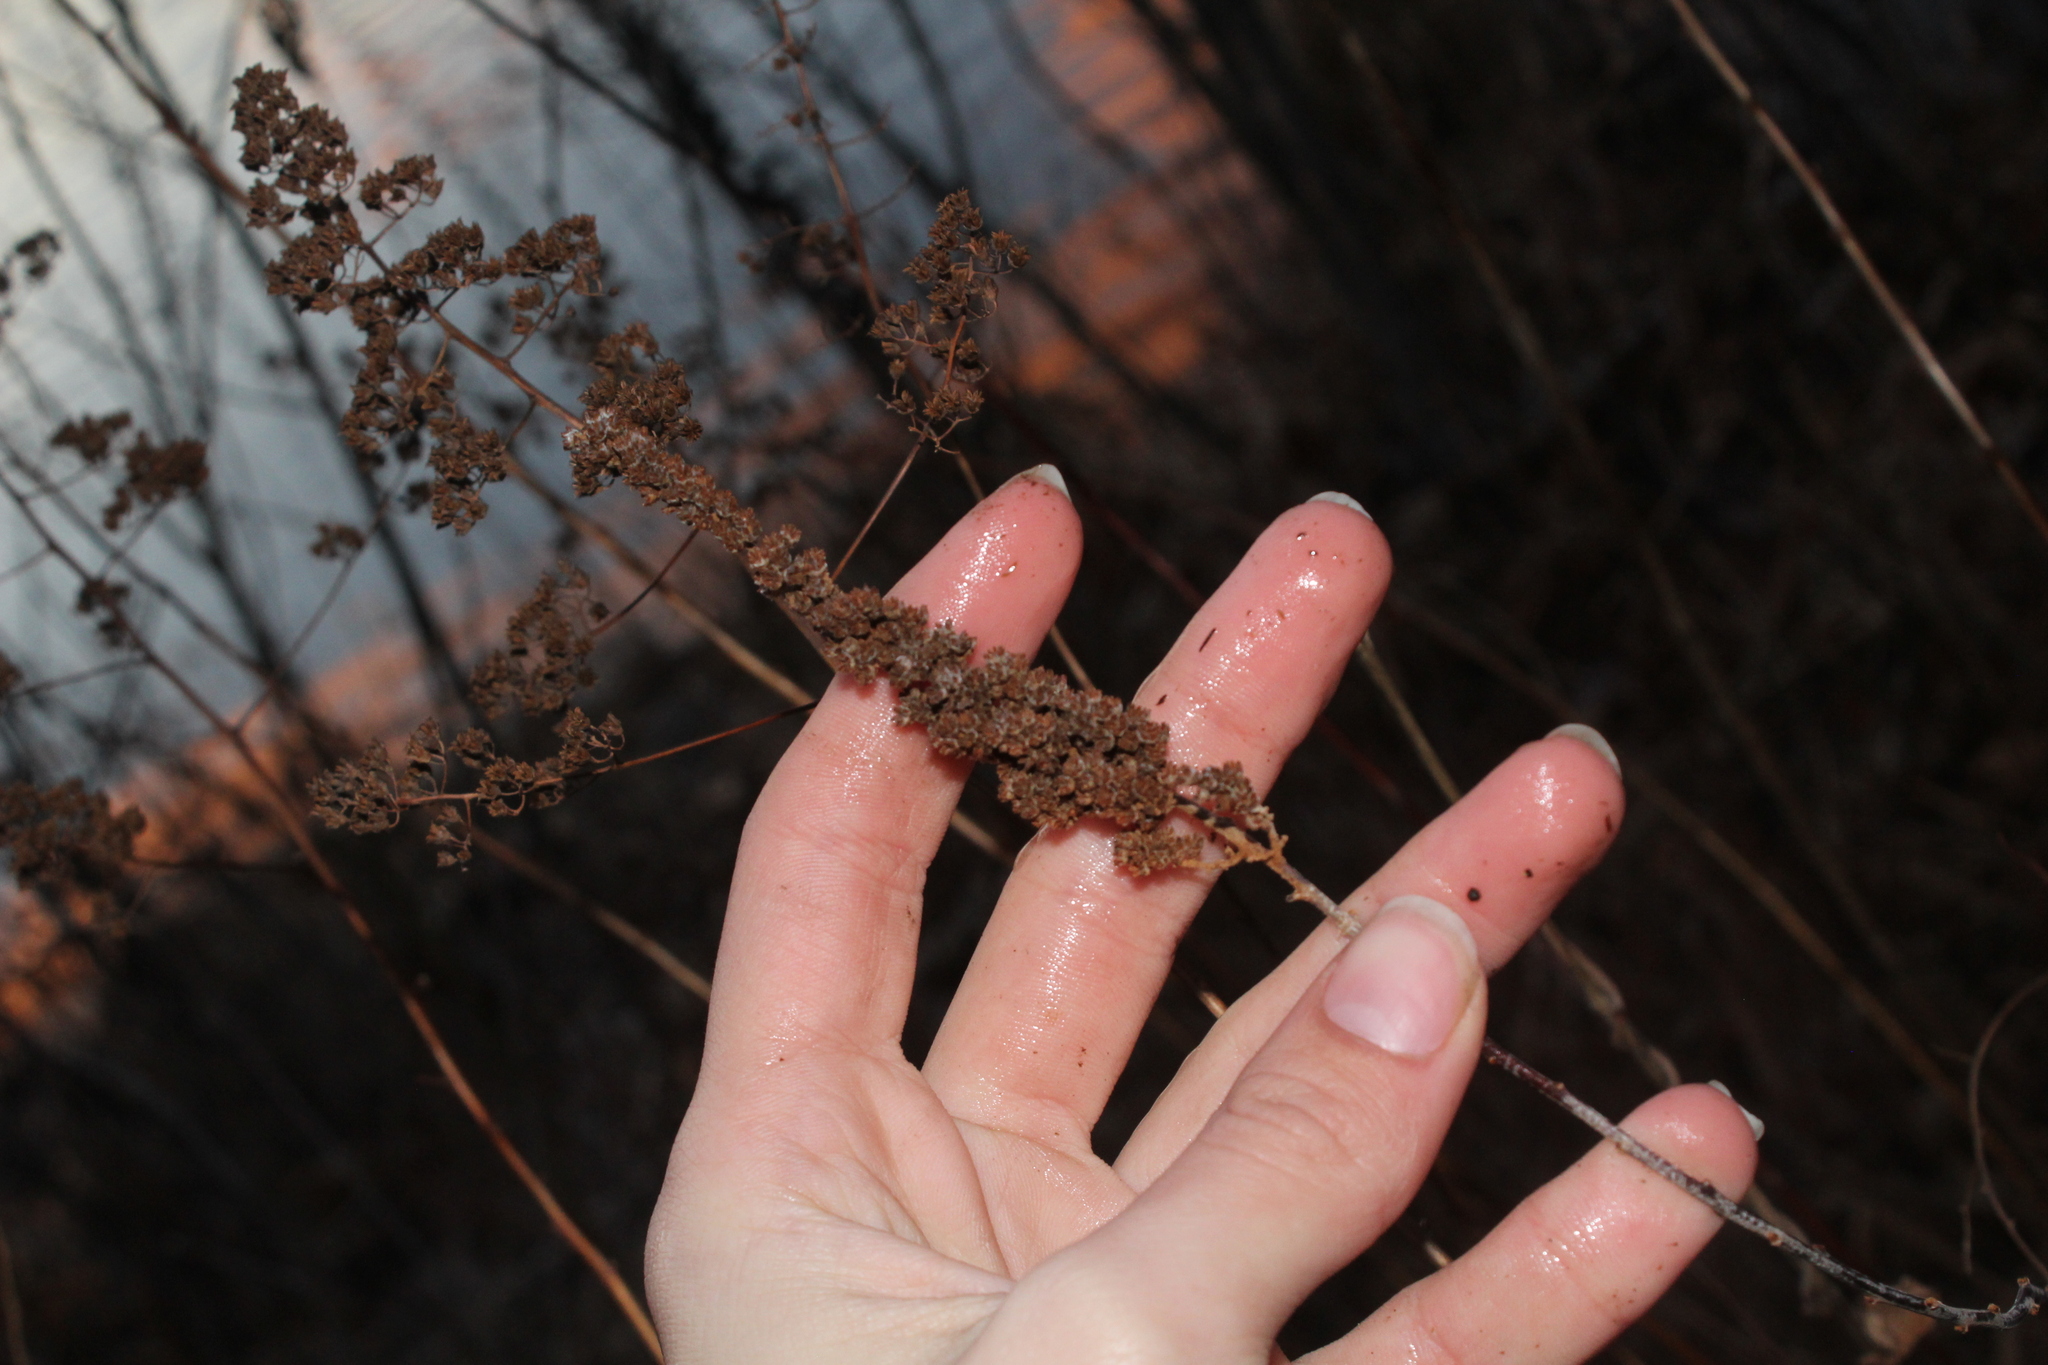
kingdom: Plantae
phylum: Tracheophyta
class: Magnoliopsida
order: Rosales
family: Rosaceae
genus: Spiraea
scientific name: Spiraea tomentosa
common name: Hardhack
